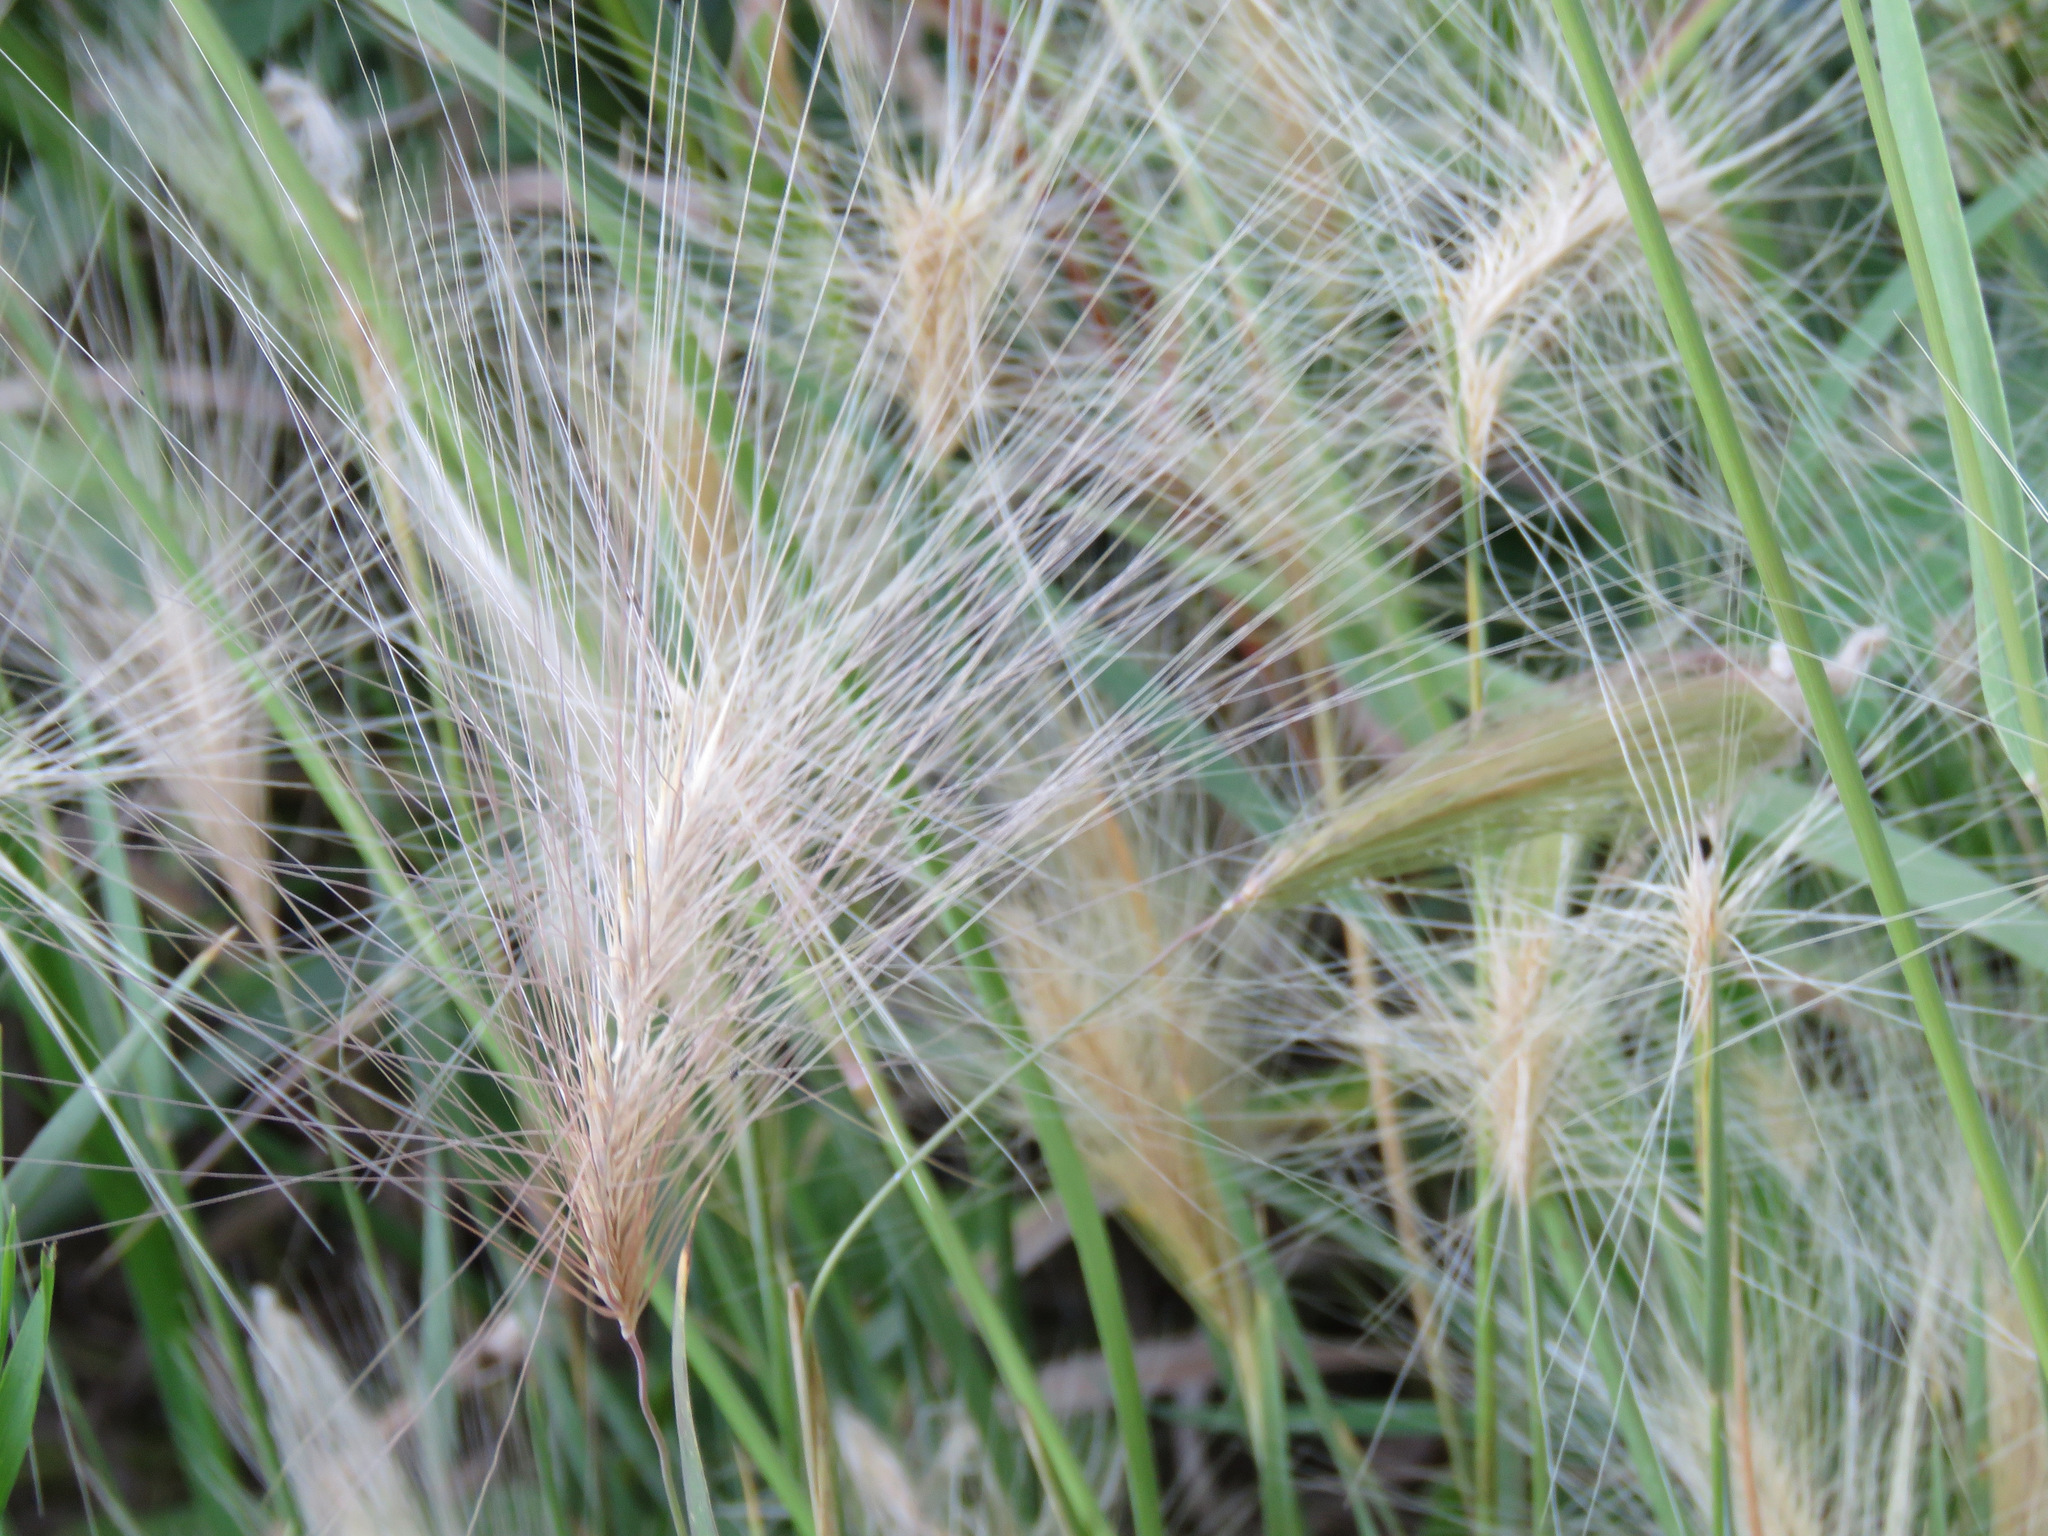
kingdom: Plantae
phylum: Tracheophyta
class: Liliopsida
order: Poales
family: Poaceae
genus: Hordeum
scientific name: Hordeum jubatum
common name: Foxtail barley
